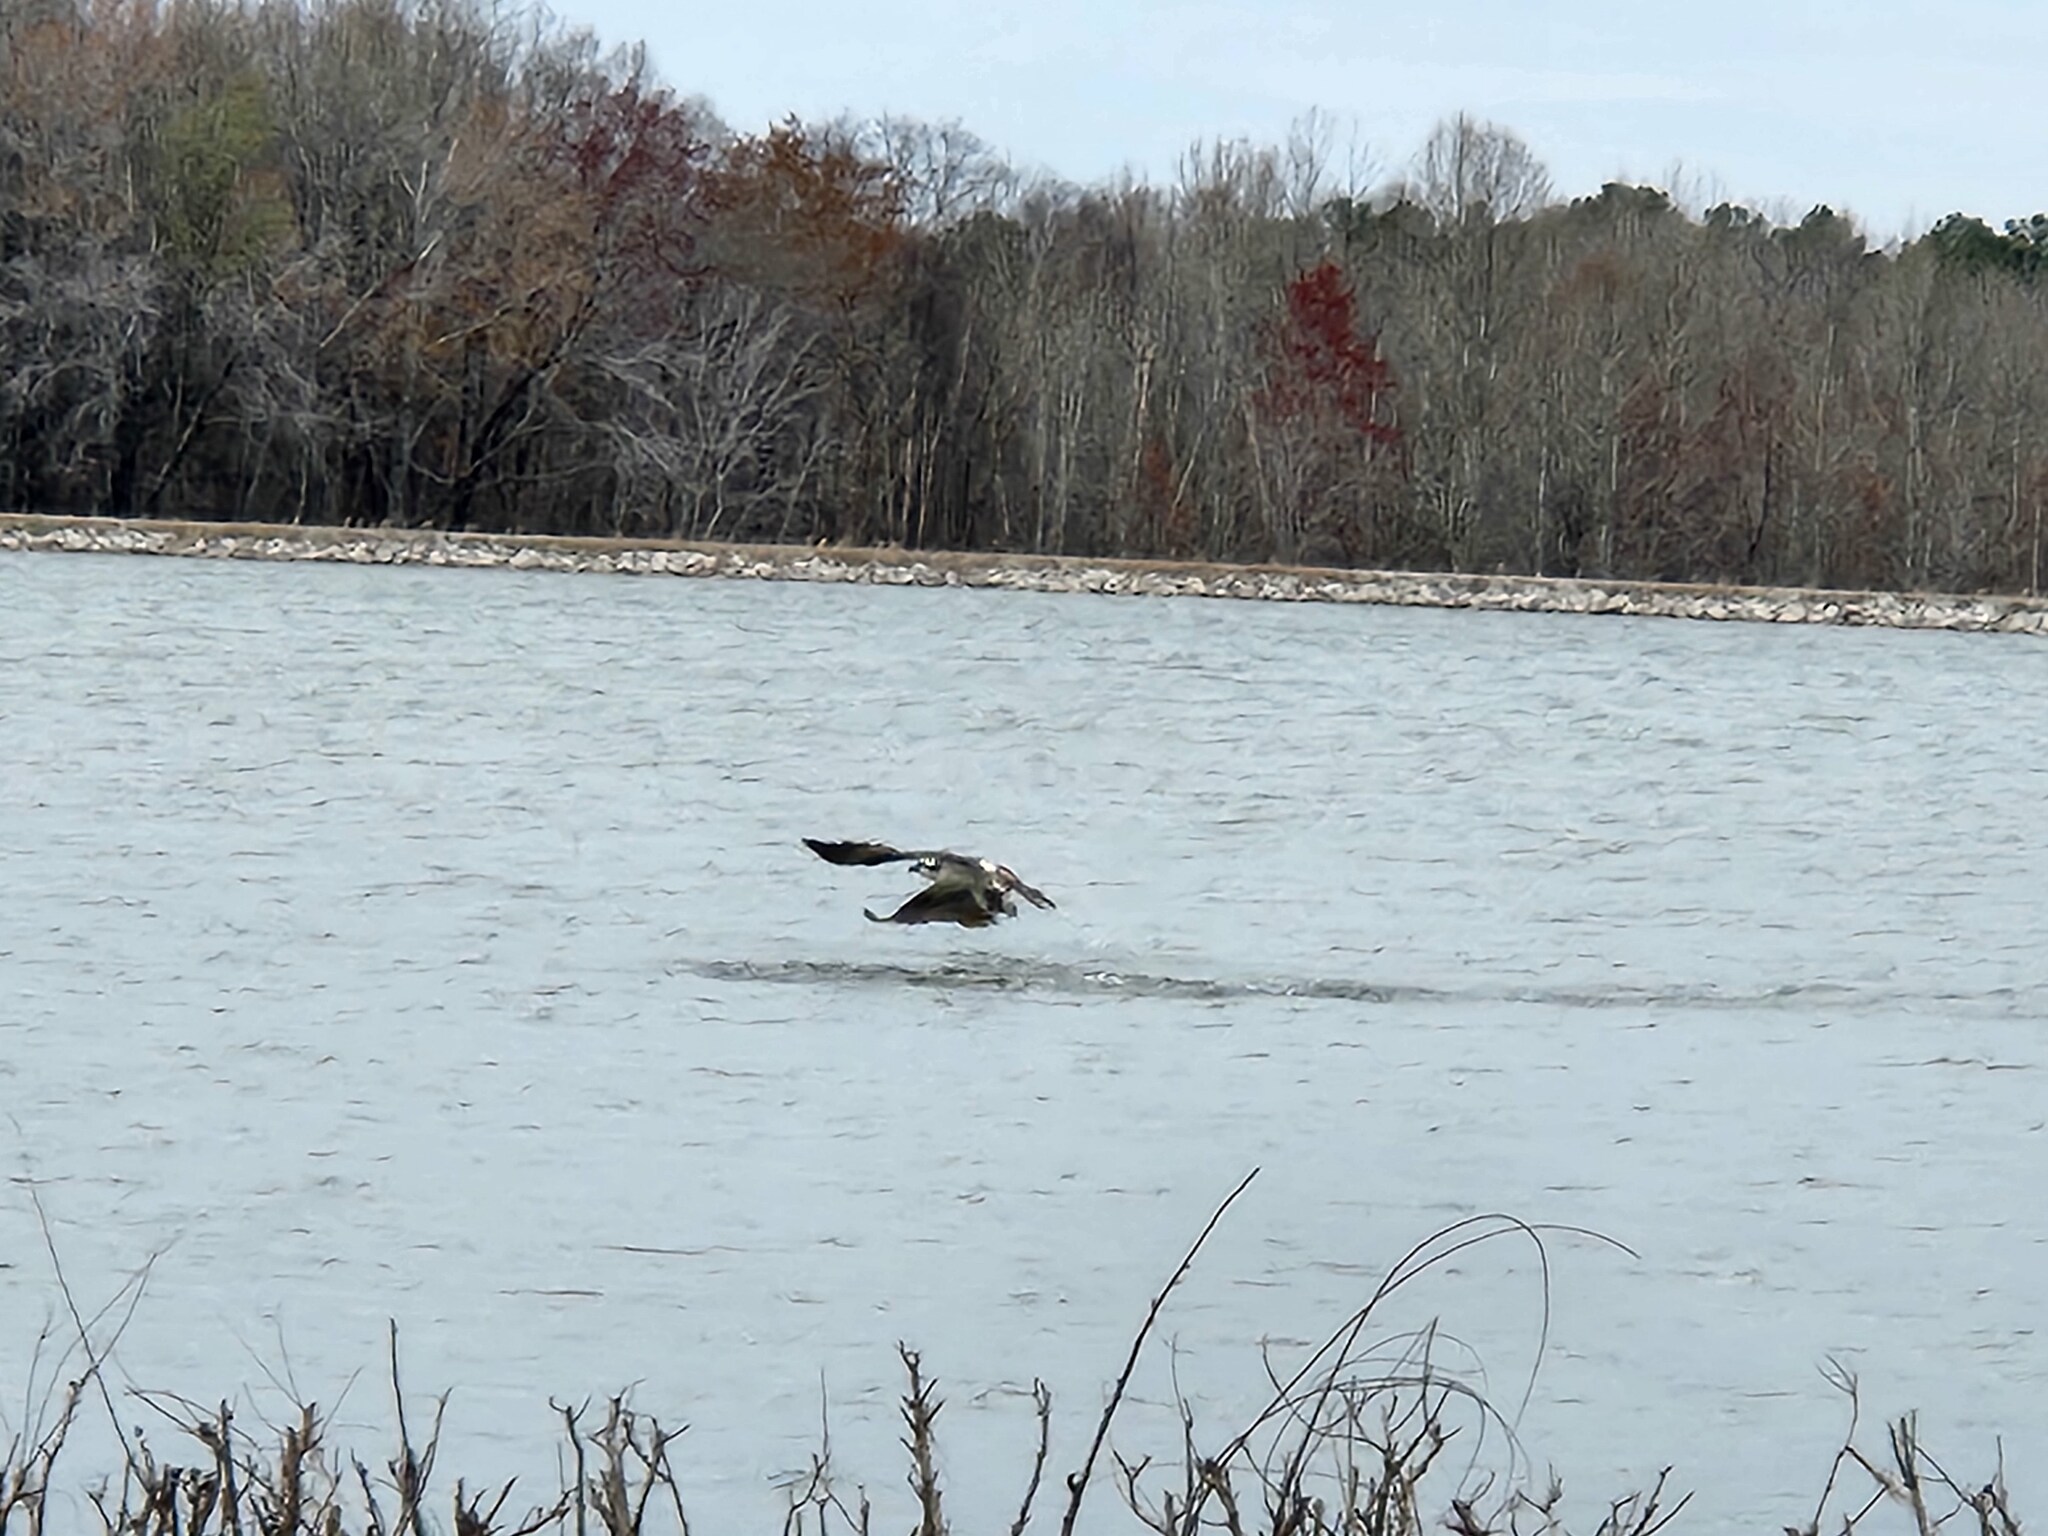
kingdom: Animalia
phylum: Chordata
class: Aves
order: Accipitriformes
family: Pandionidae
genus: Pandion
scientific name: Pandion haliaetus
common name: Osprey
